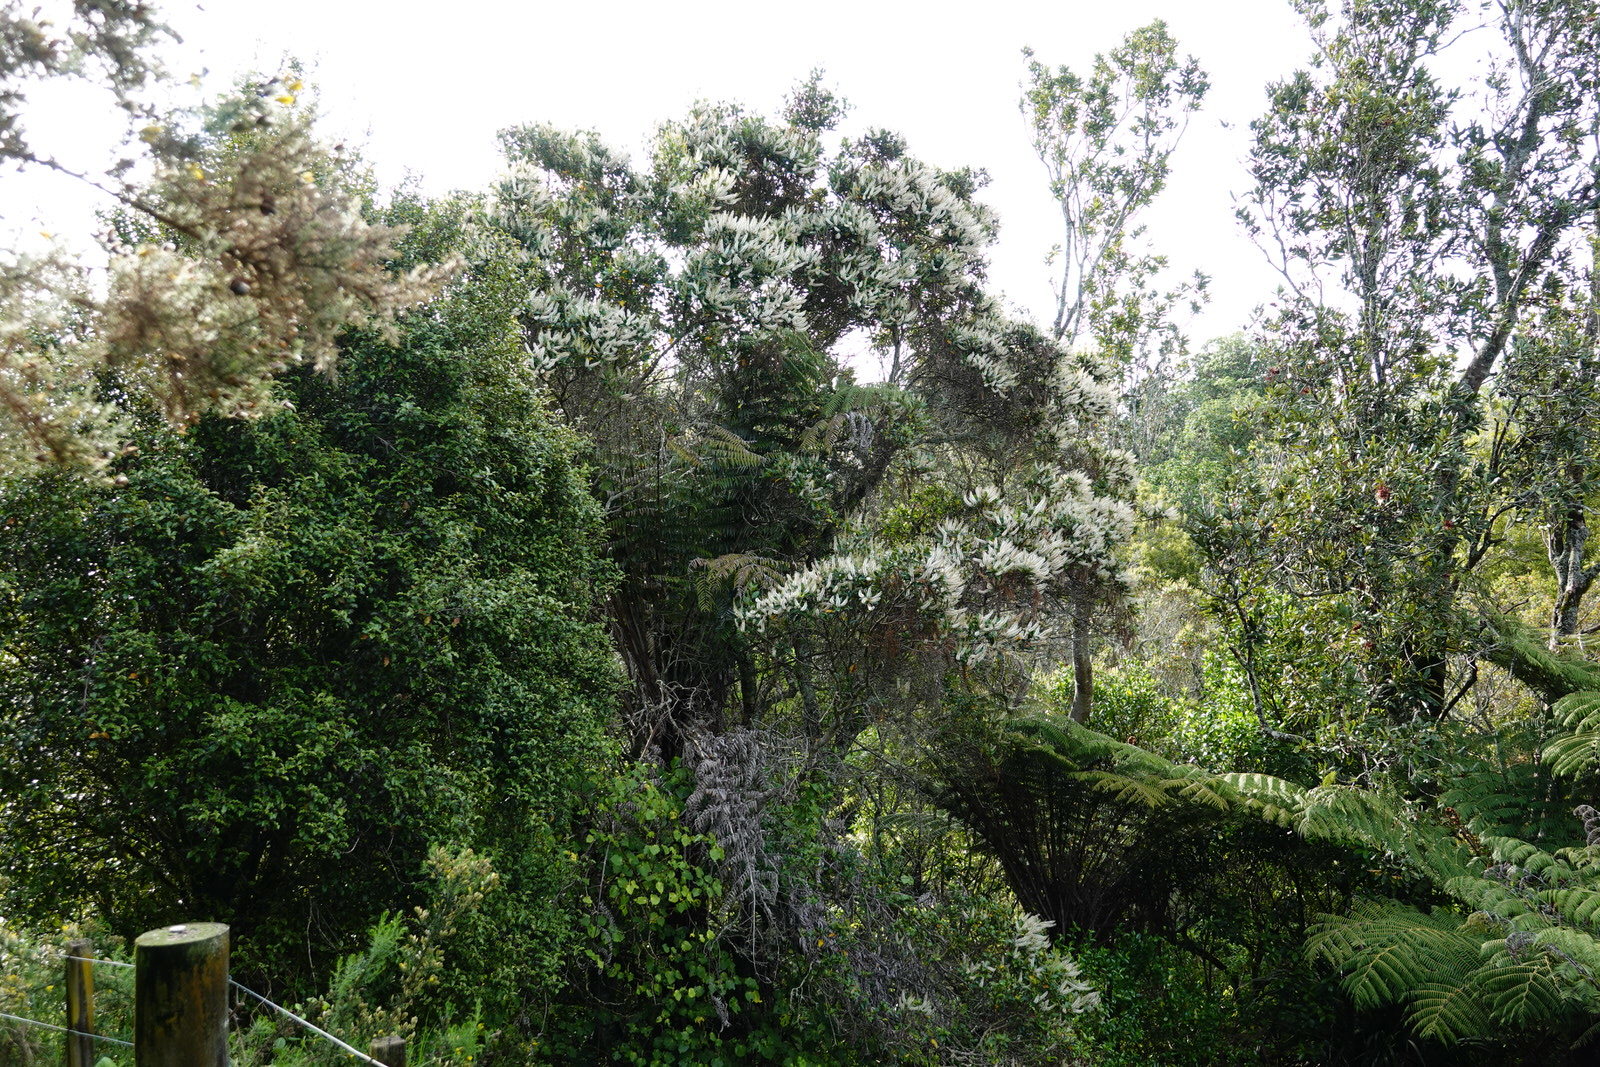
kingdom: Plantae
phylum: Tracheophyta
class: Magnoliopsida
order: Oxalidales
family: Cunoniaceae
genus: Pterophylla
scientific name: Pterophylla racemosa
